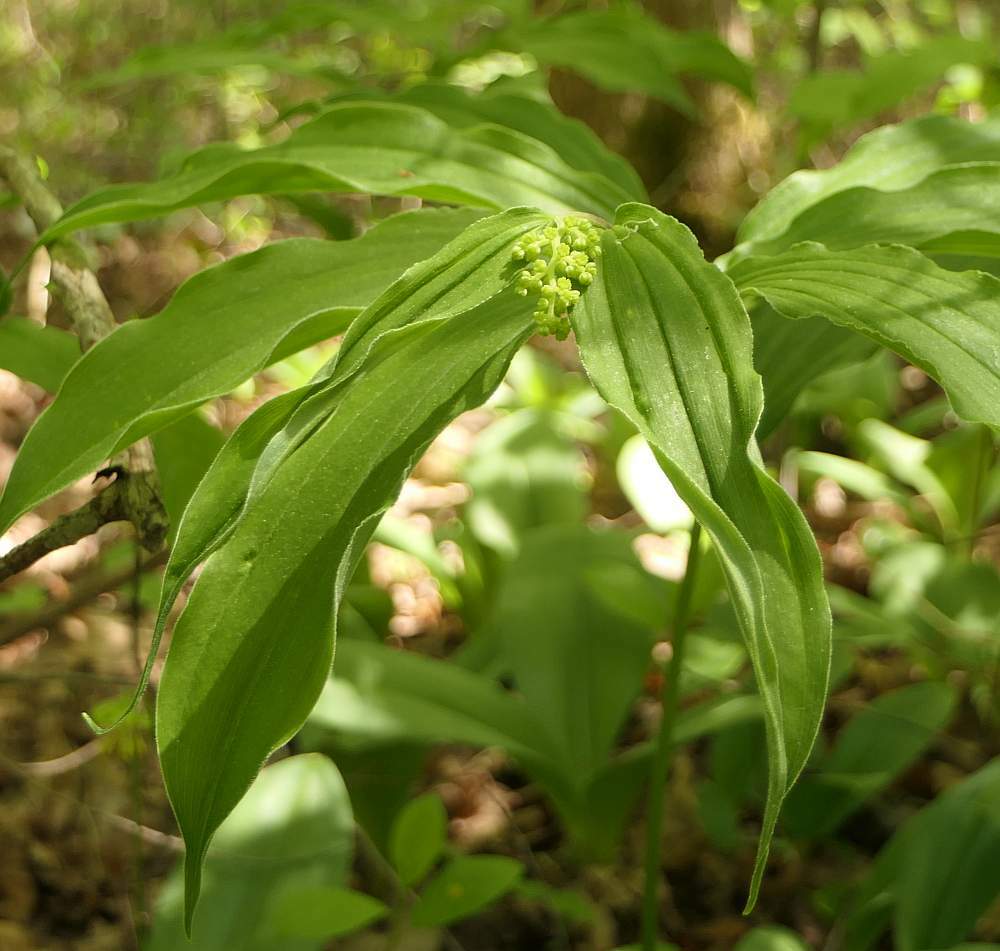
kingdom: Plantae
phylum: Tracheophyta
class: Liliopsida
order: Asparagales
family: Asparagaceae
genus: Maianthemum
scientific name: Maianthemum racemosum
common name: False spikenard
